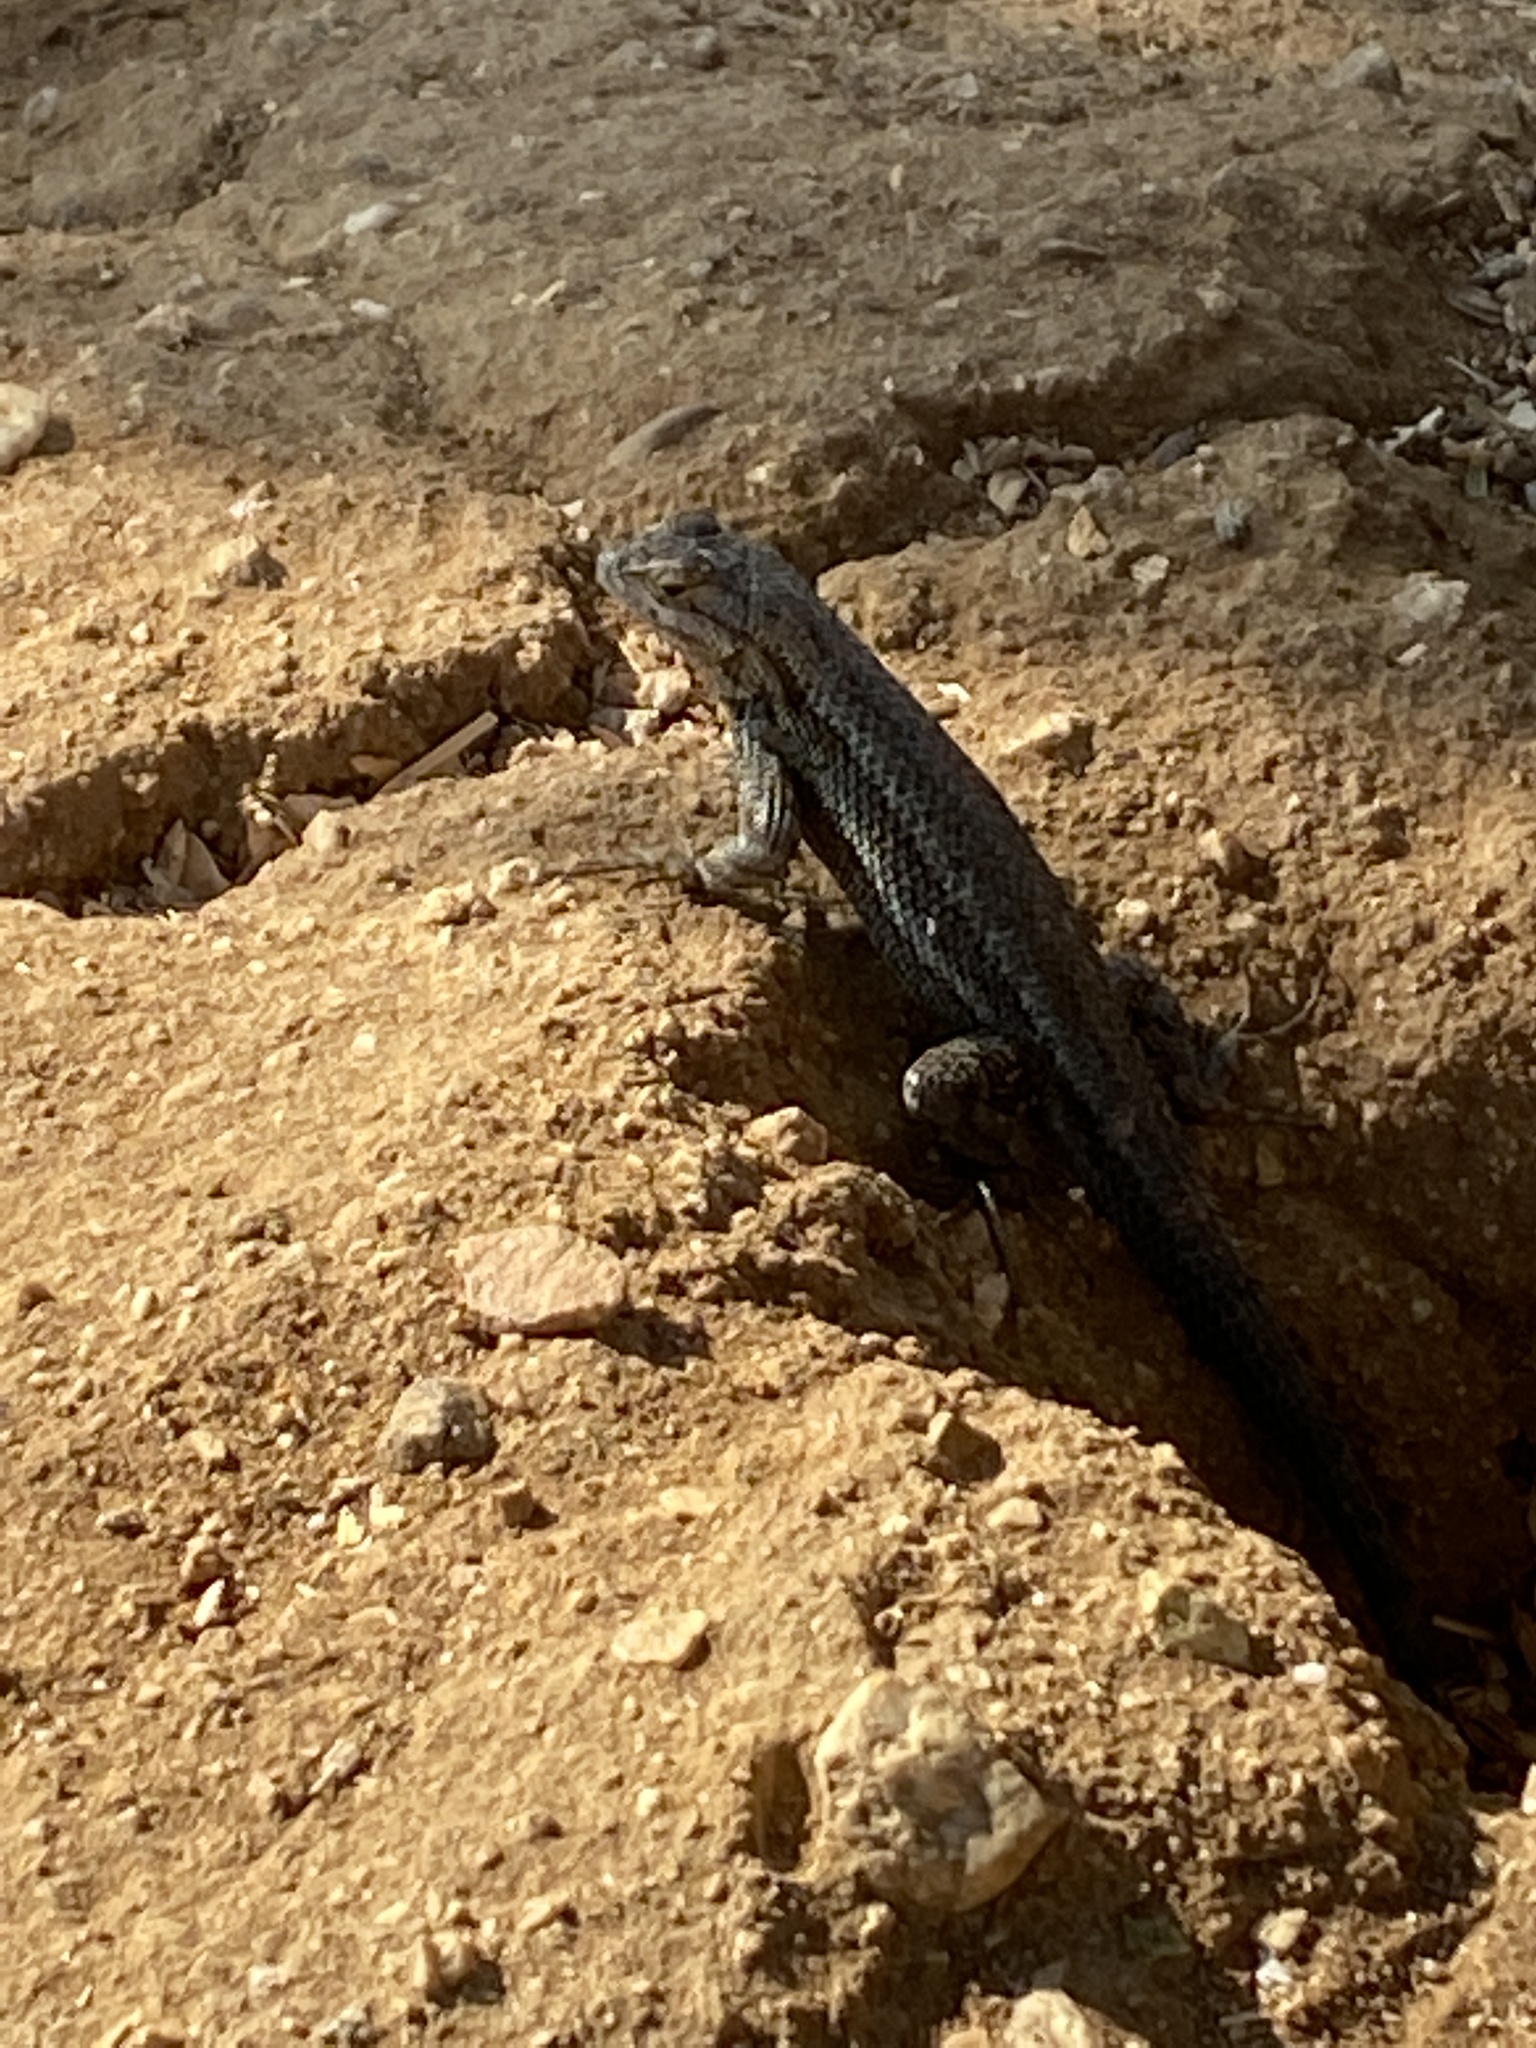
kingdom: Animalia
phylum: Chordata
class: Squamata
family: Phrynosomatidae
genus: Sceloporus
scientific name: Sceloporus occidentalis
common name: Western fence lizard
